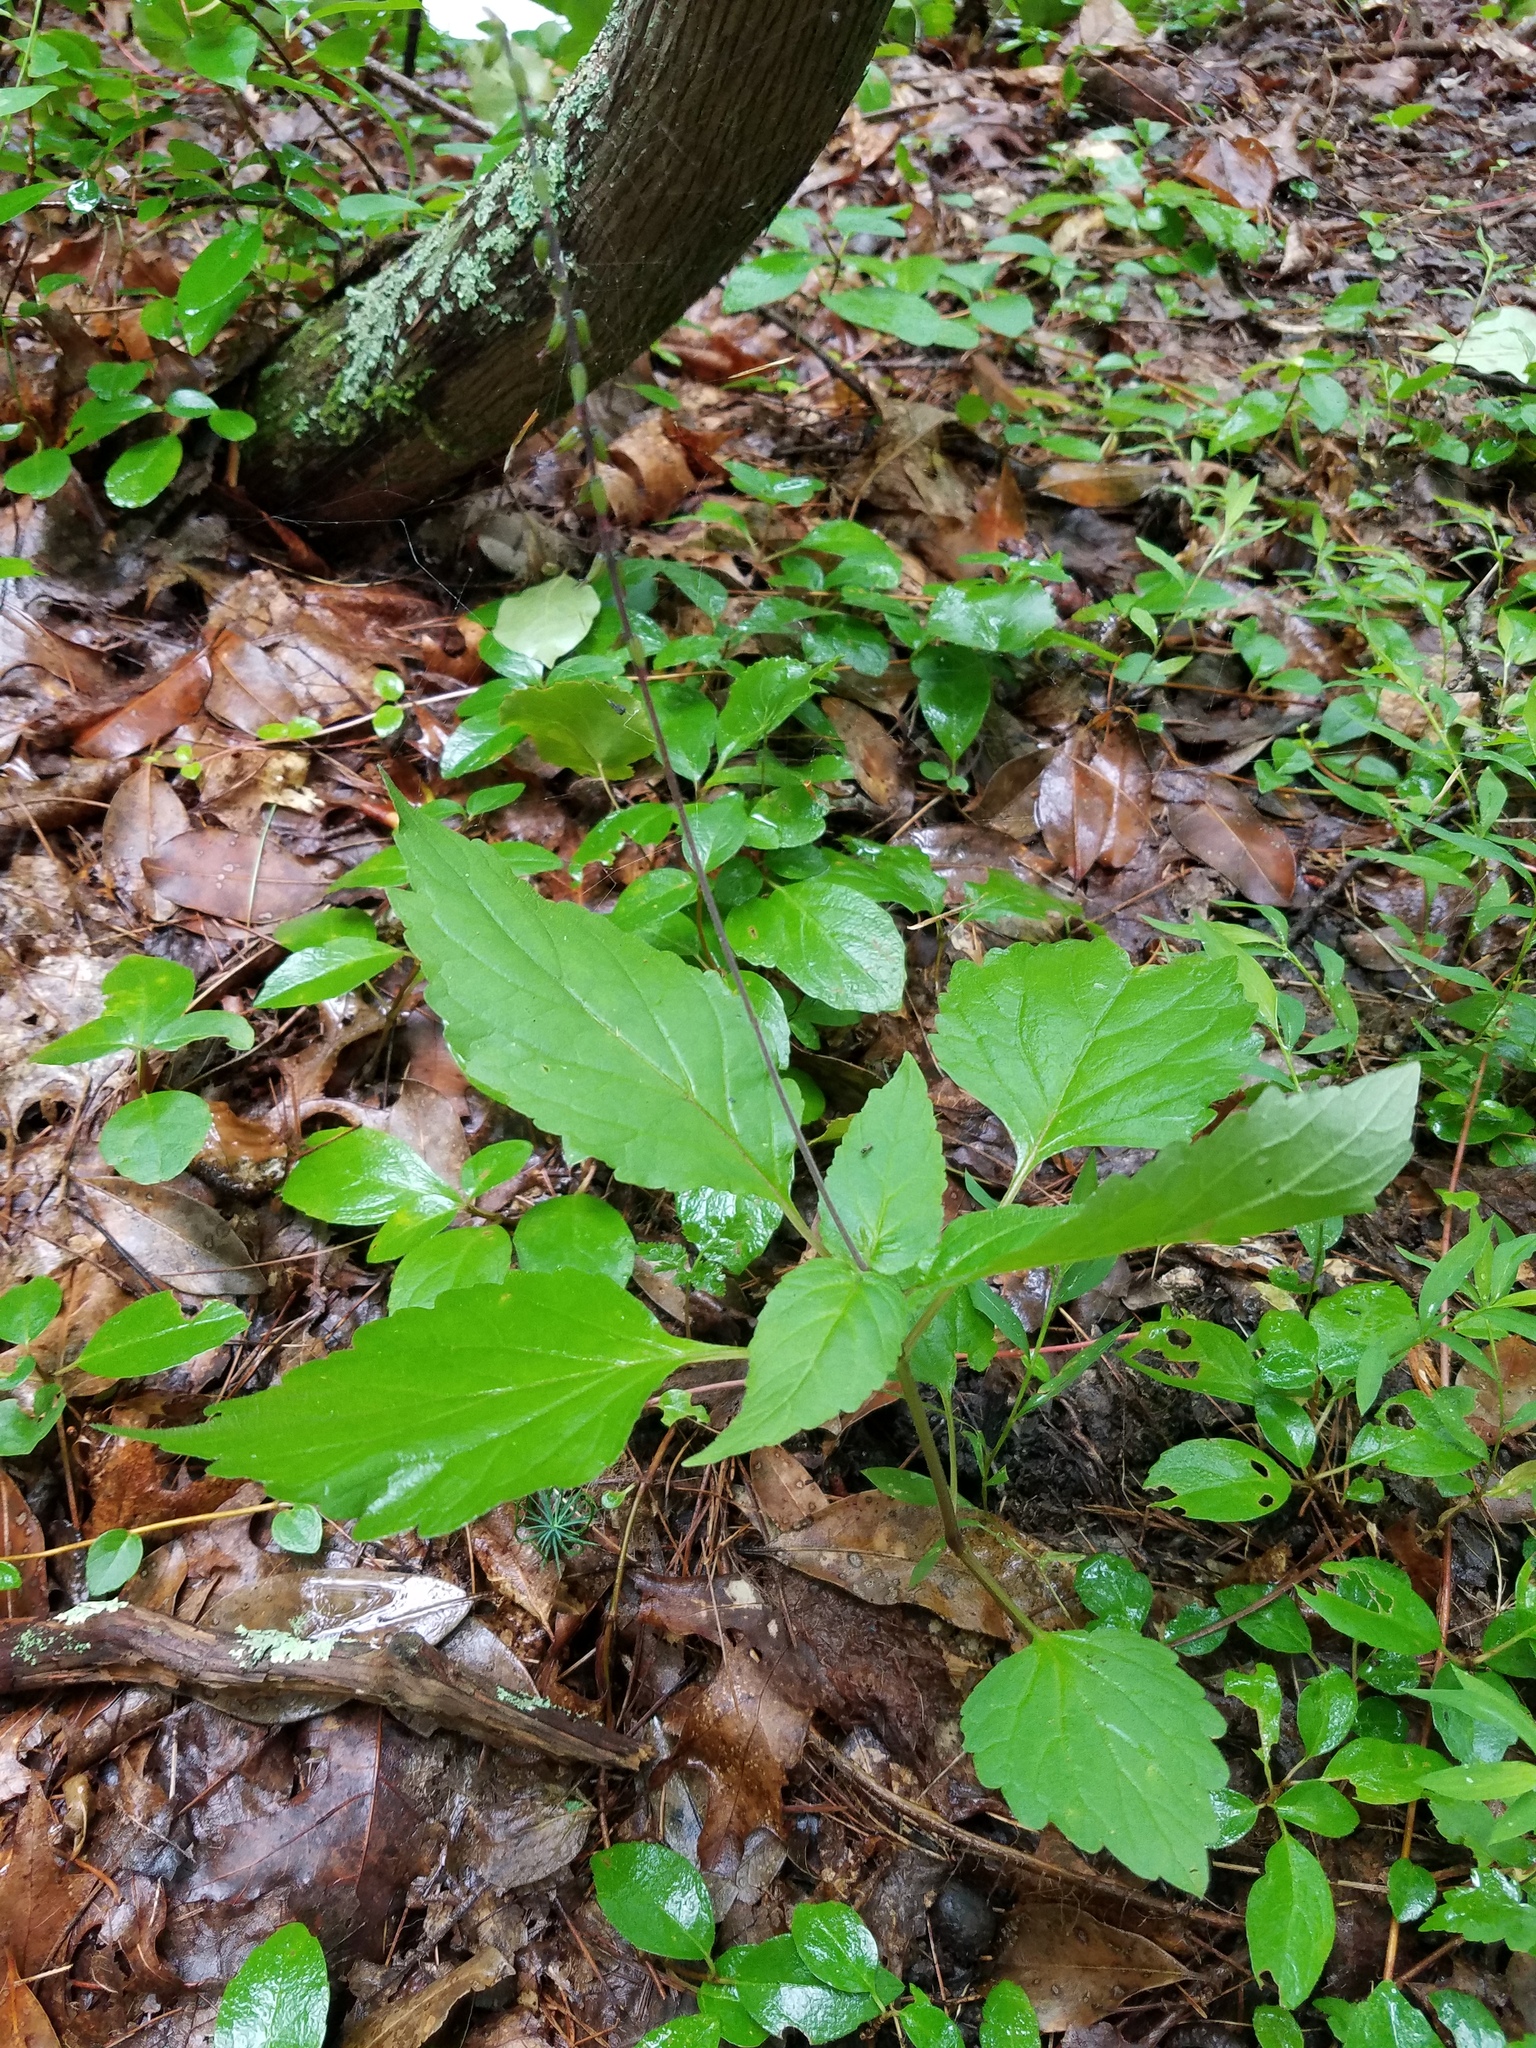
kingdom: Plantae
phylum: Tracheophyta
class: Magnoliopsida
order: Lamiales
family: Phrymaceae
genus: Phryma
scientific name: Phryma leptostachya
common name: American lopseed
